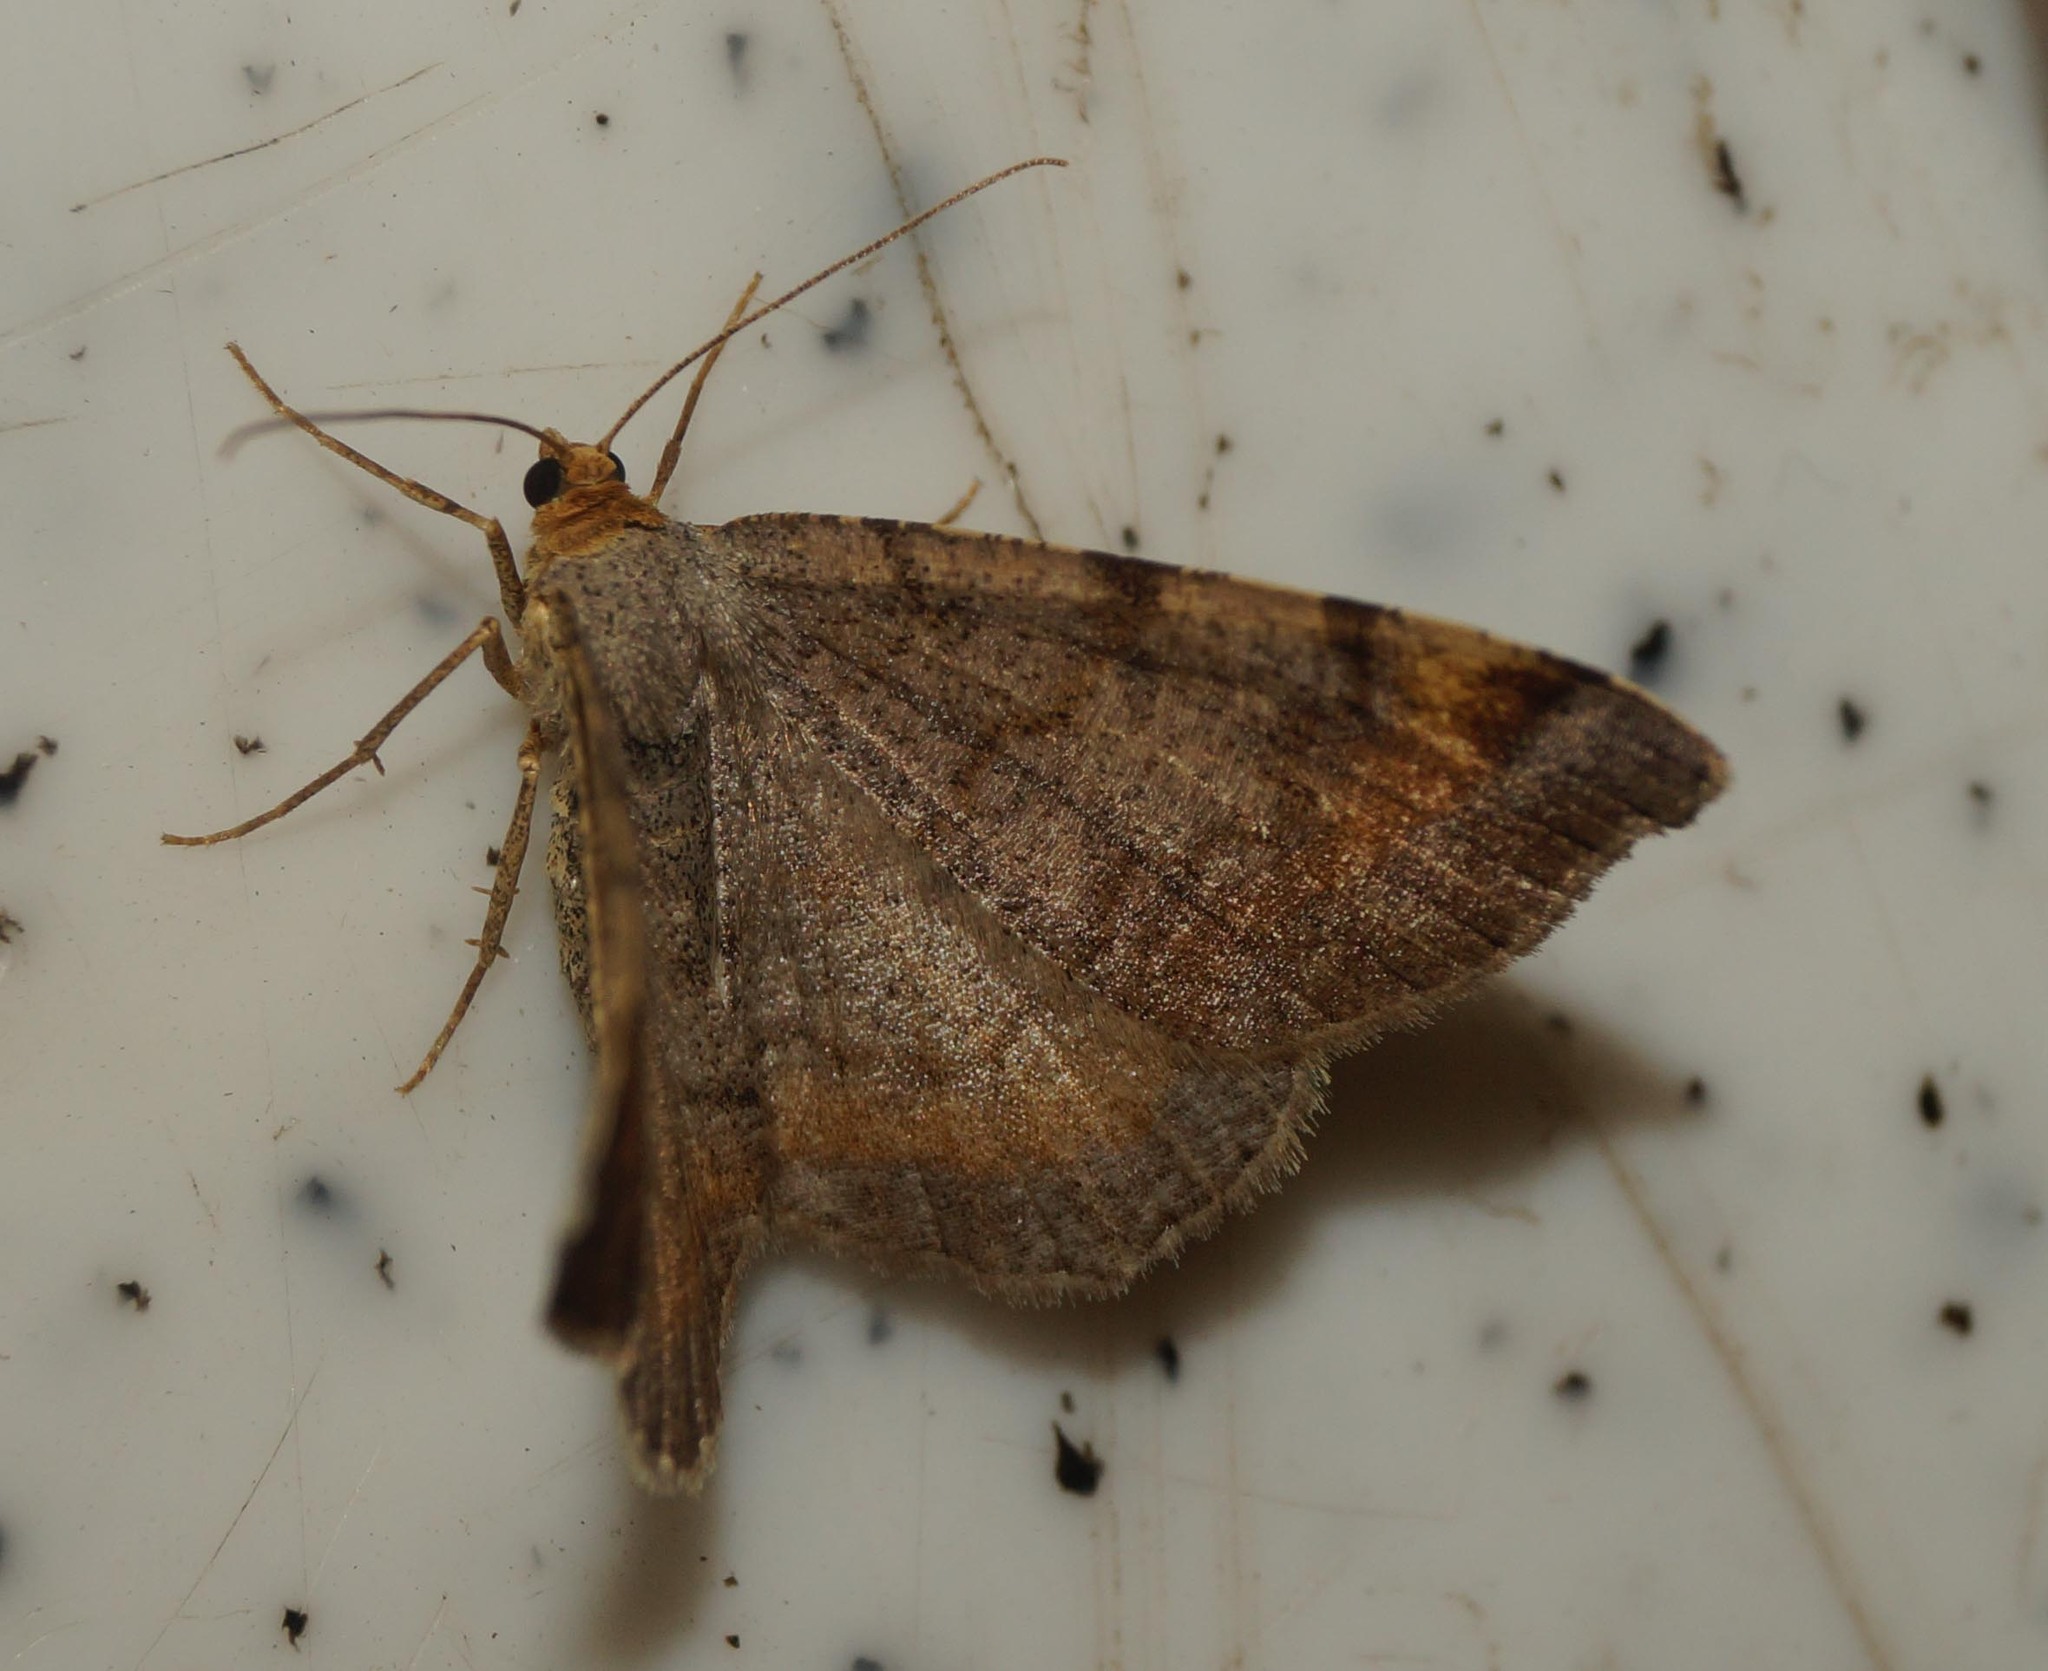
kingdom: Animalia
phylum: Arthropoda
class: Insecta
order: Lepidoptera
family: Geometridae
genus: Macaria
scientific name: Macaria liturata
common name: Tawny-barred angle
